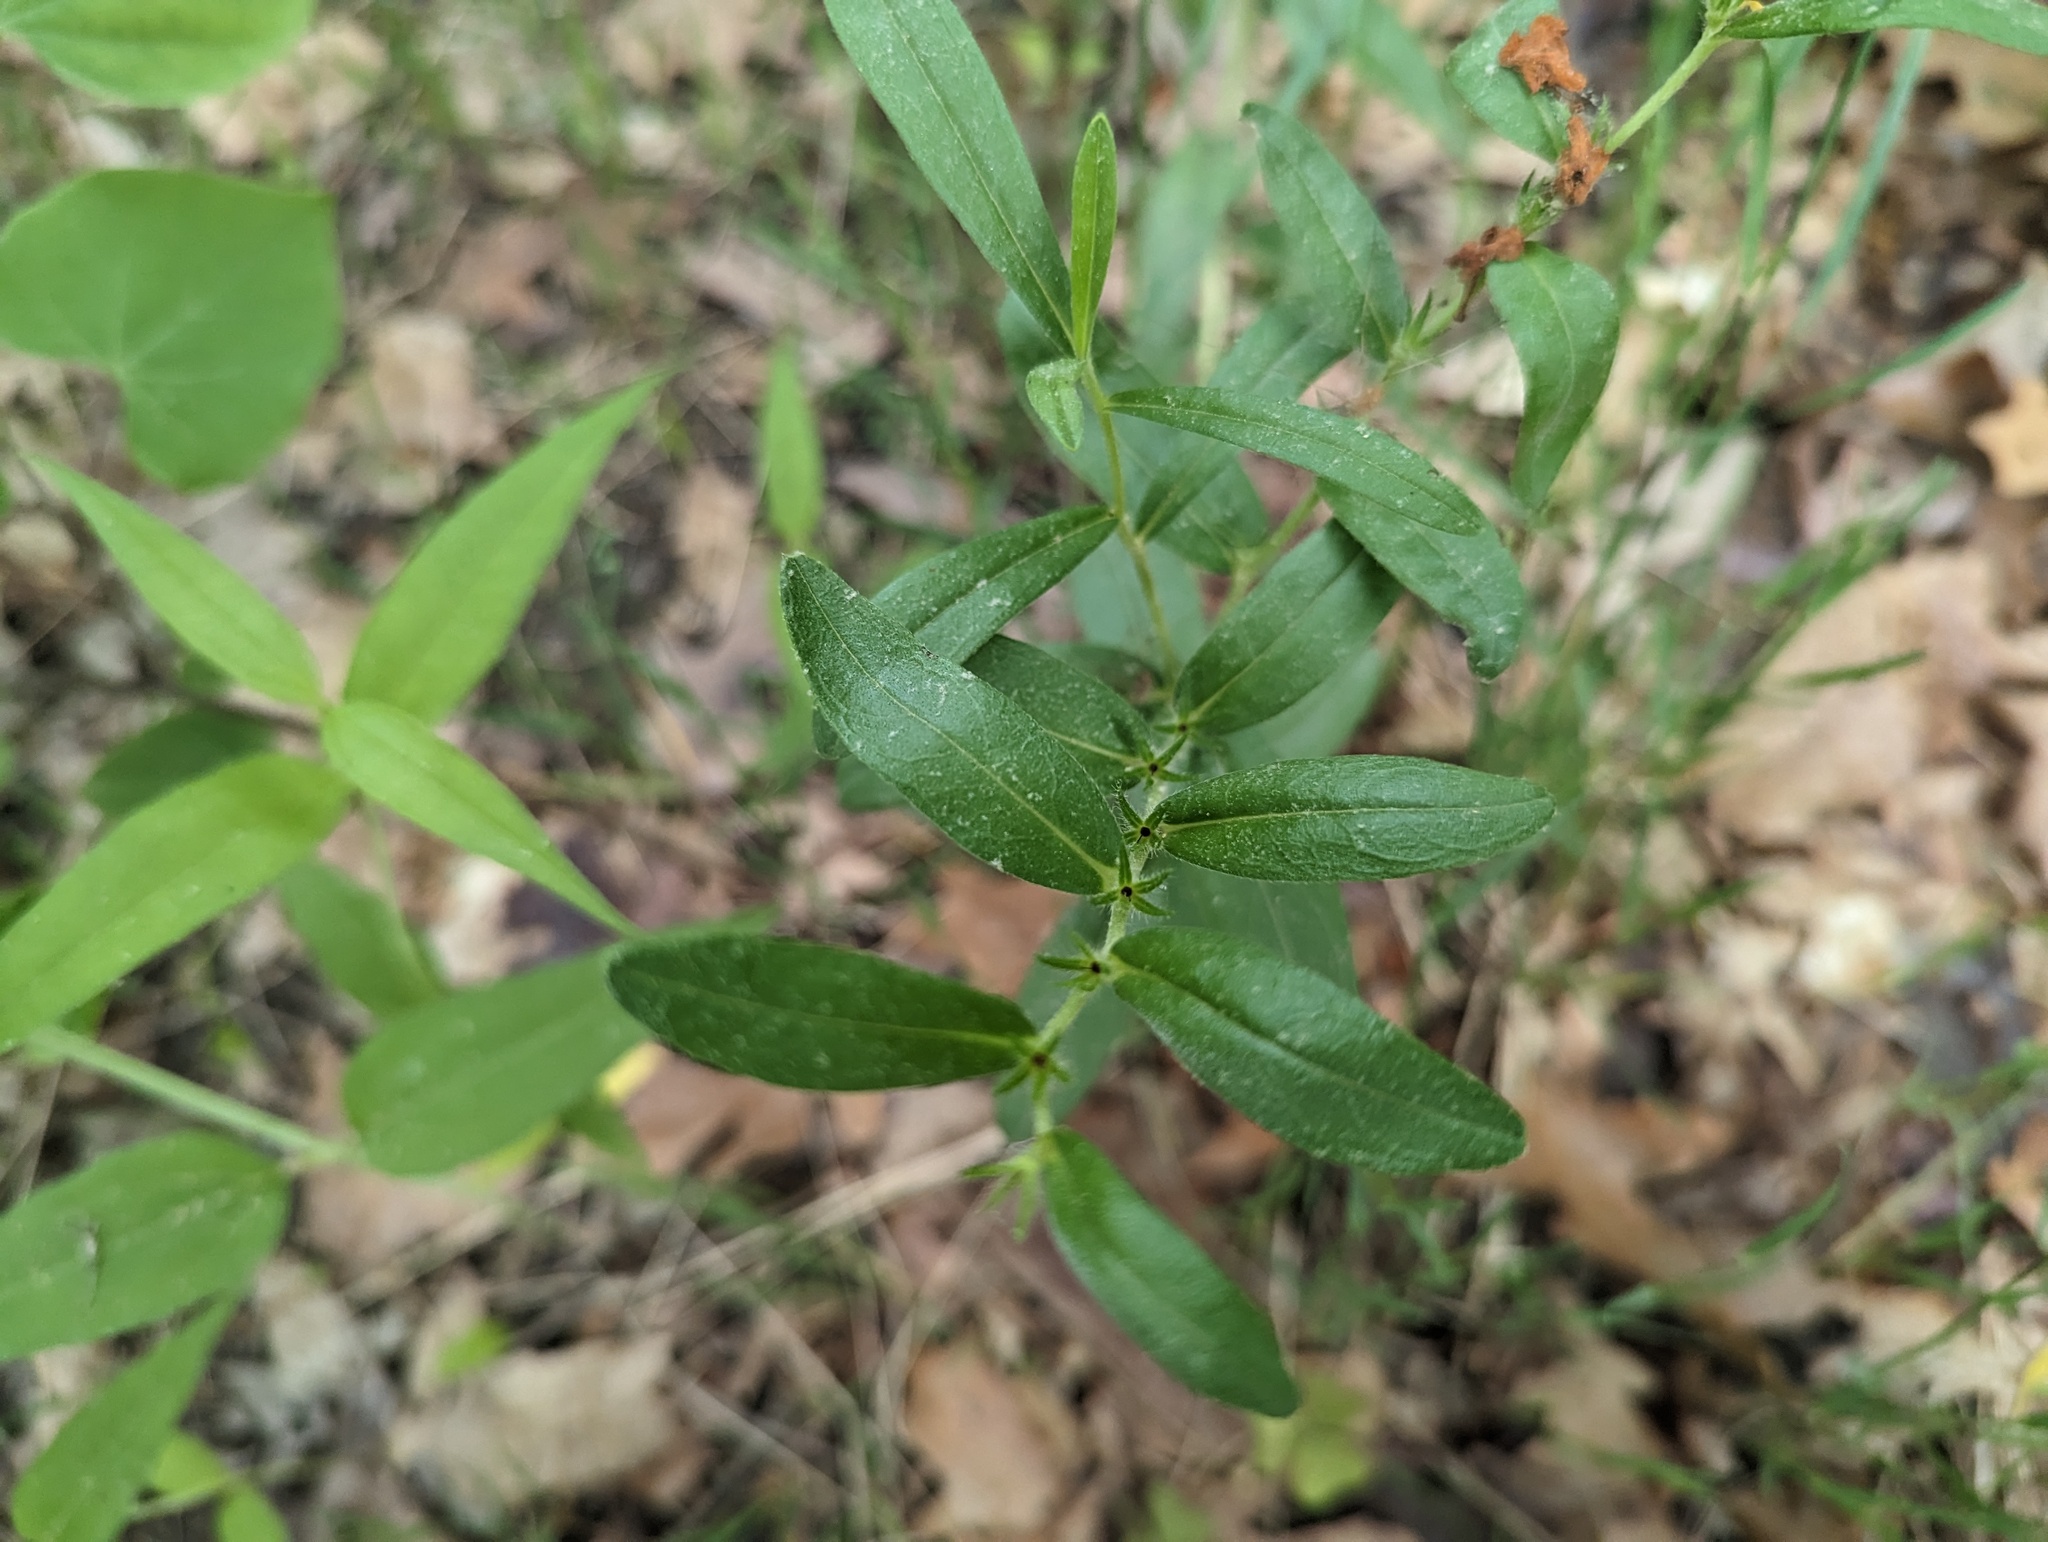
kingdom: Plantae
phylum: Tracheophyta
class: Magnoliopsida
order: Boraginales
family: Boraginaceae
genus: Lithospermum
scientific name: Lithospermum canescens
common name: Hoary puccoon
